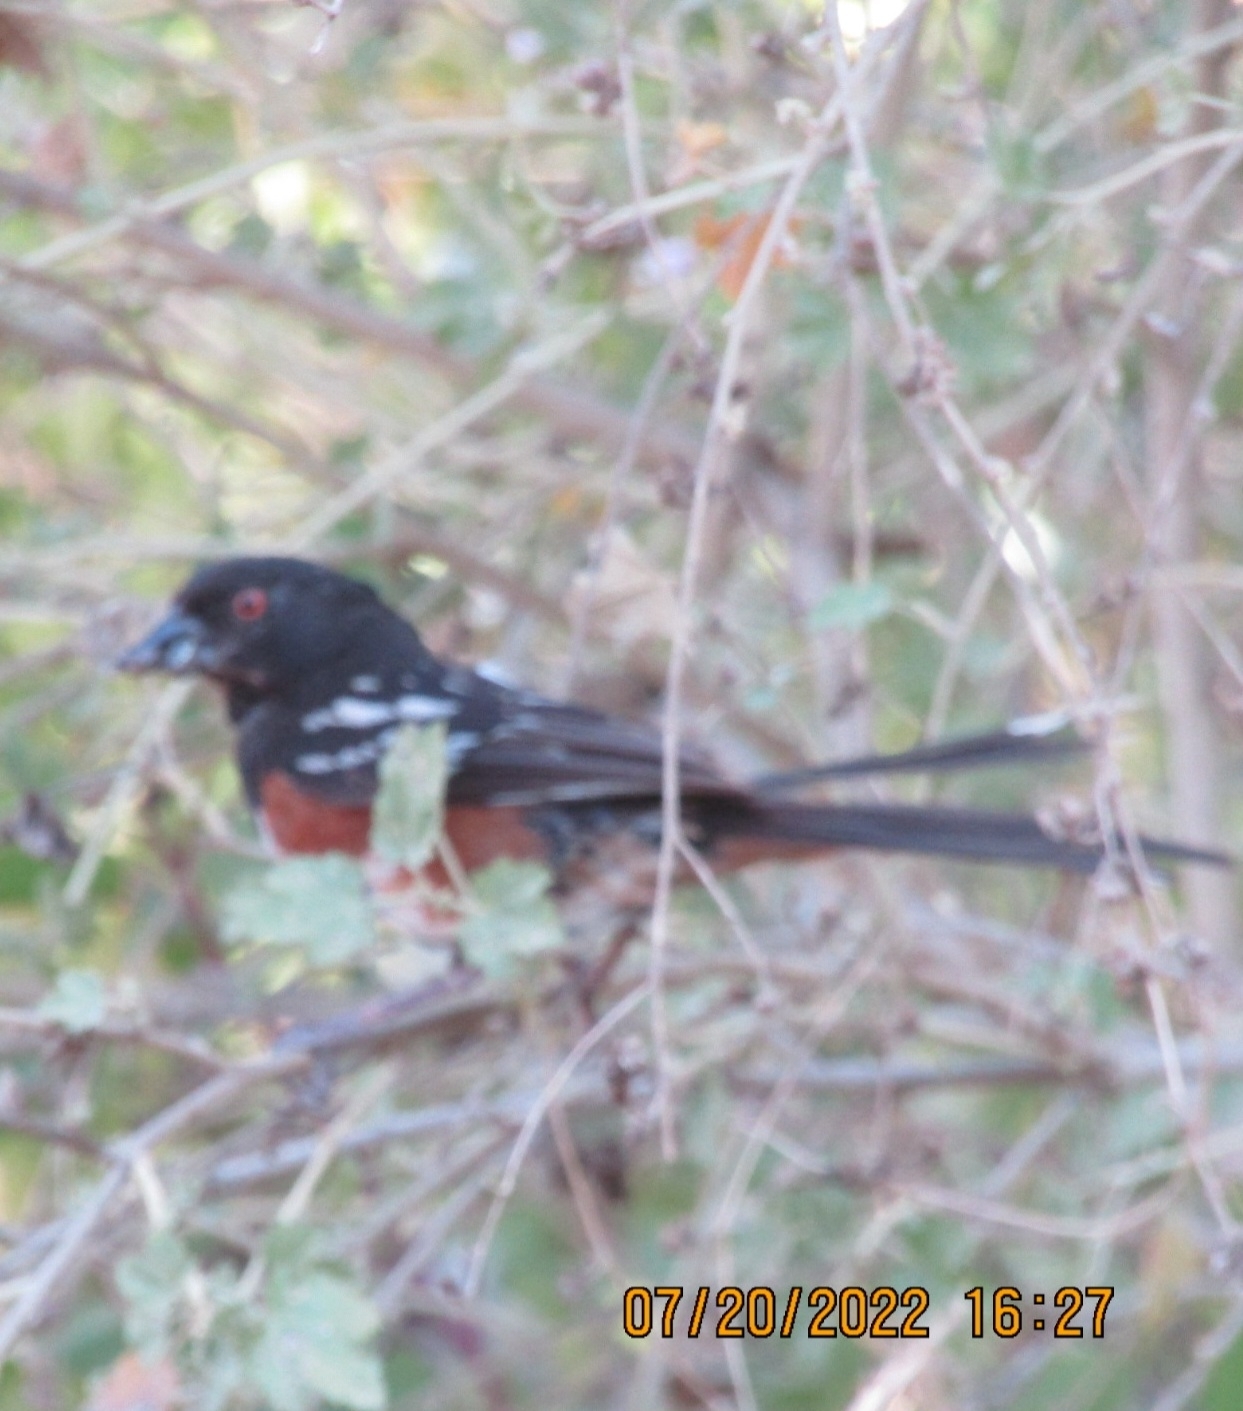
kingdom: Animalia
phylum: Chordata
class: Aves
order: Passeriformes
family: Passerellidae
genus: Pipilo
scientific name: Pipilo maculatus
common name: Spotted towhee
